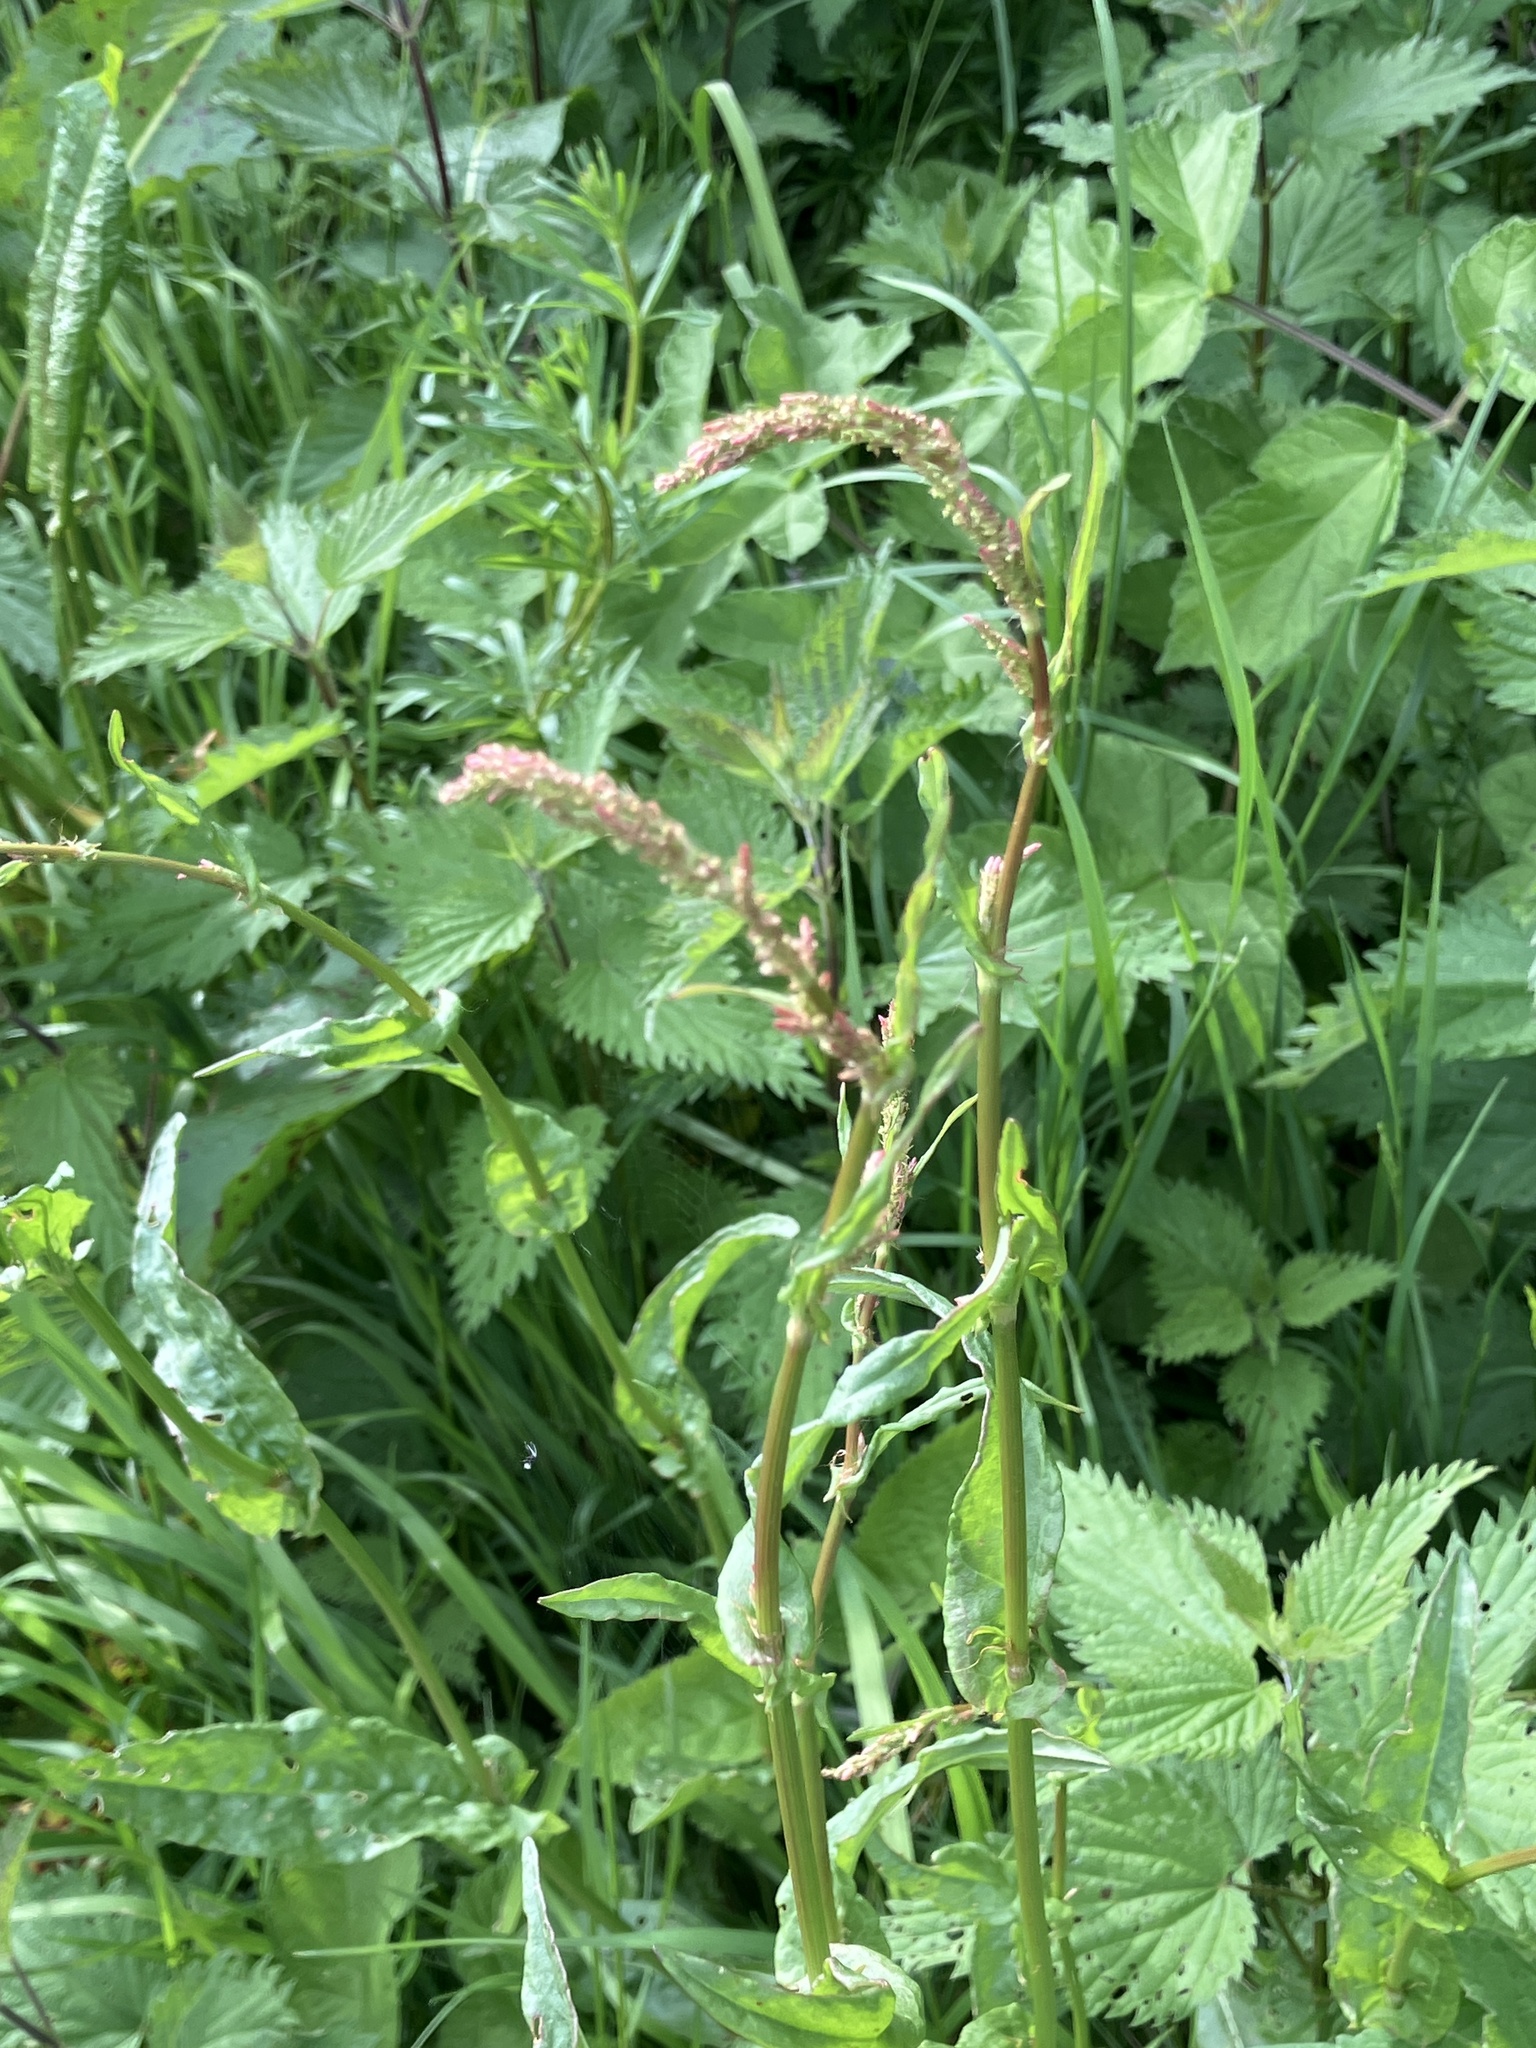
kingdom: Plantae
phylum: Tracheophyta
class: Magnoliopsida
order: Caryophyllales
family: Polygonaceae
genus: Rumex
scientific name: Rumex acetosa
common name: Garden sorrel
